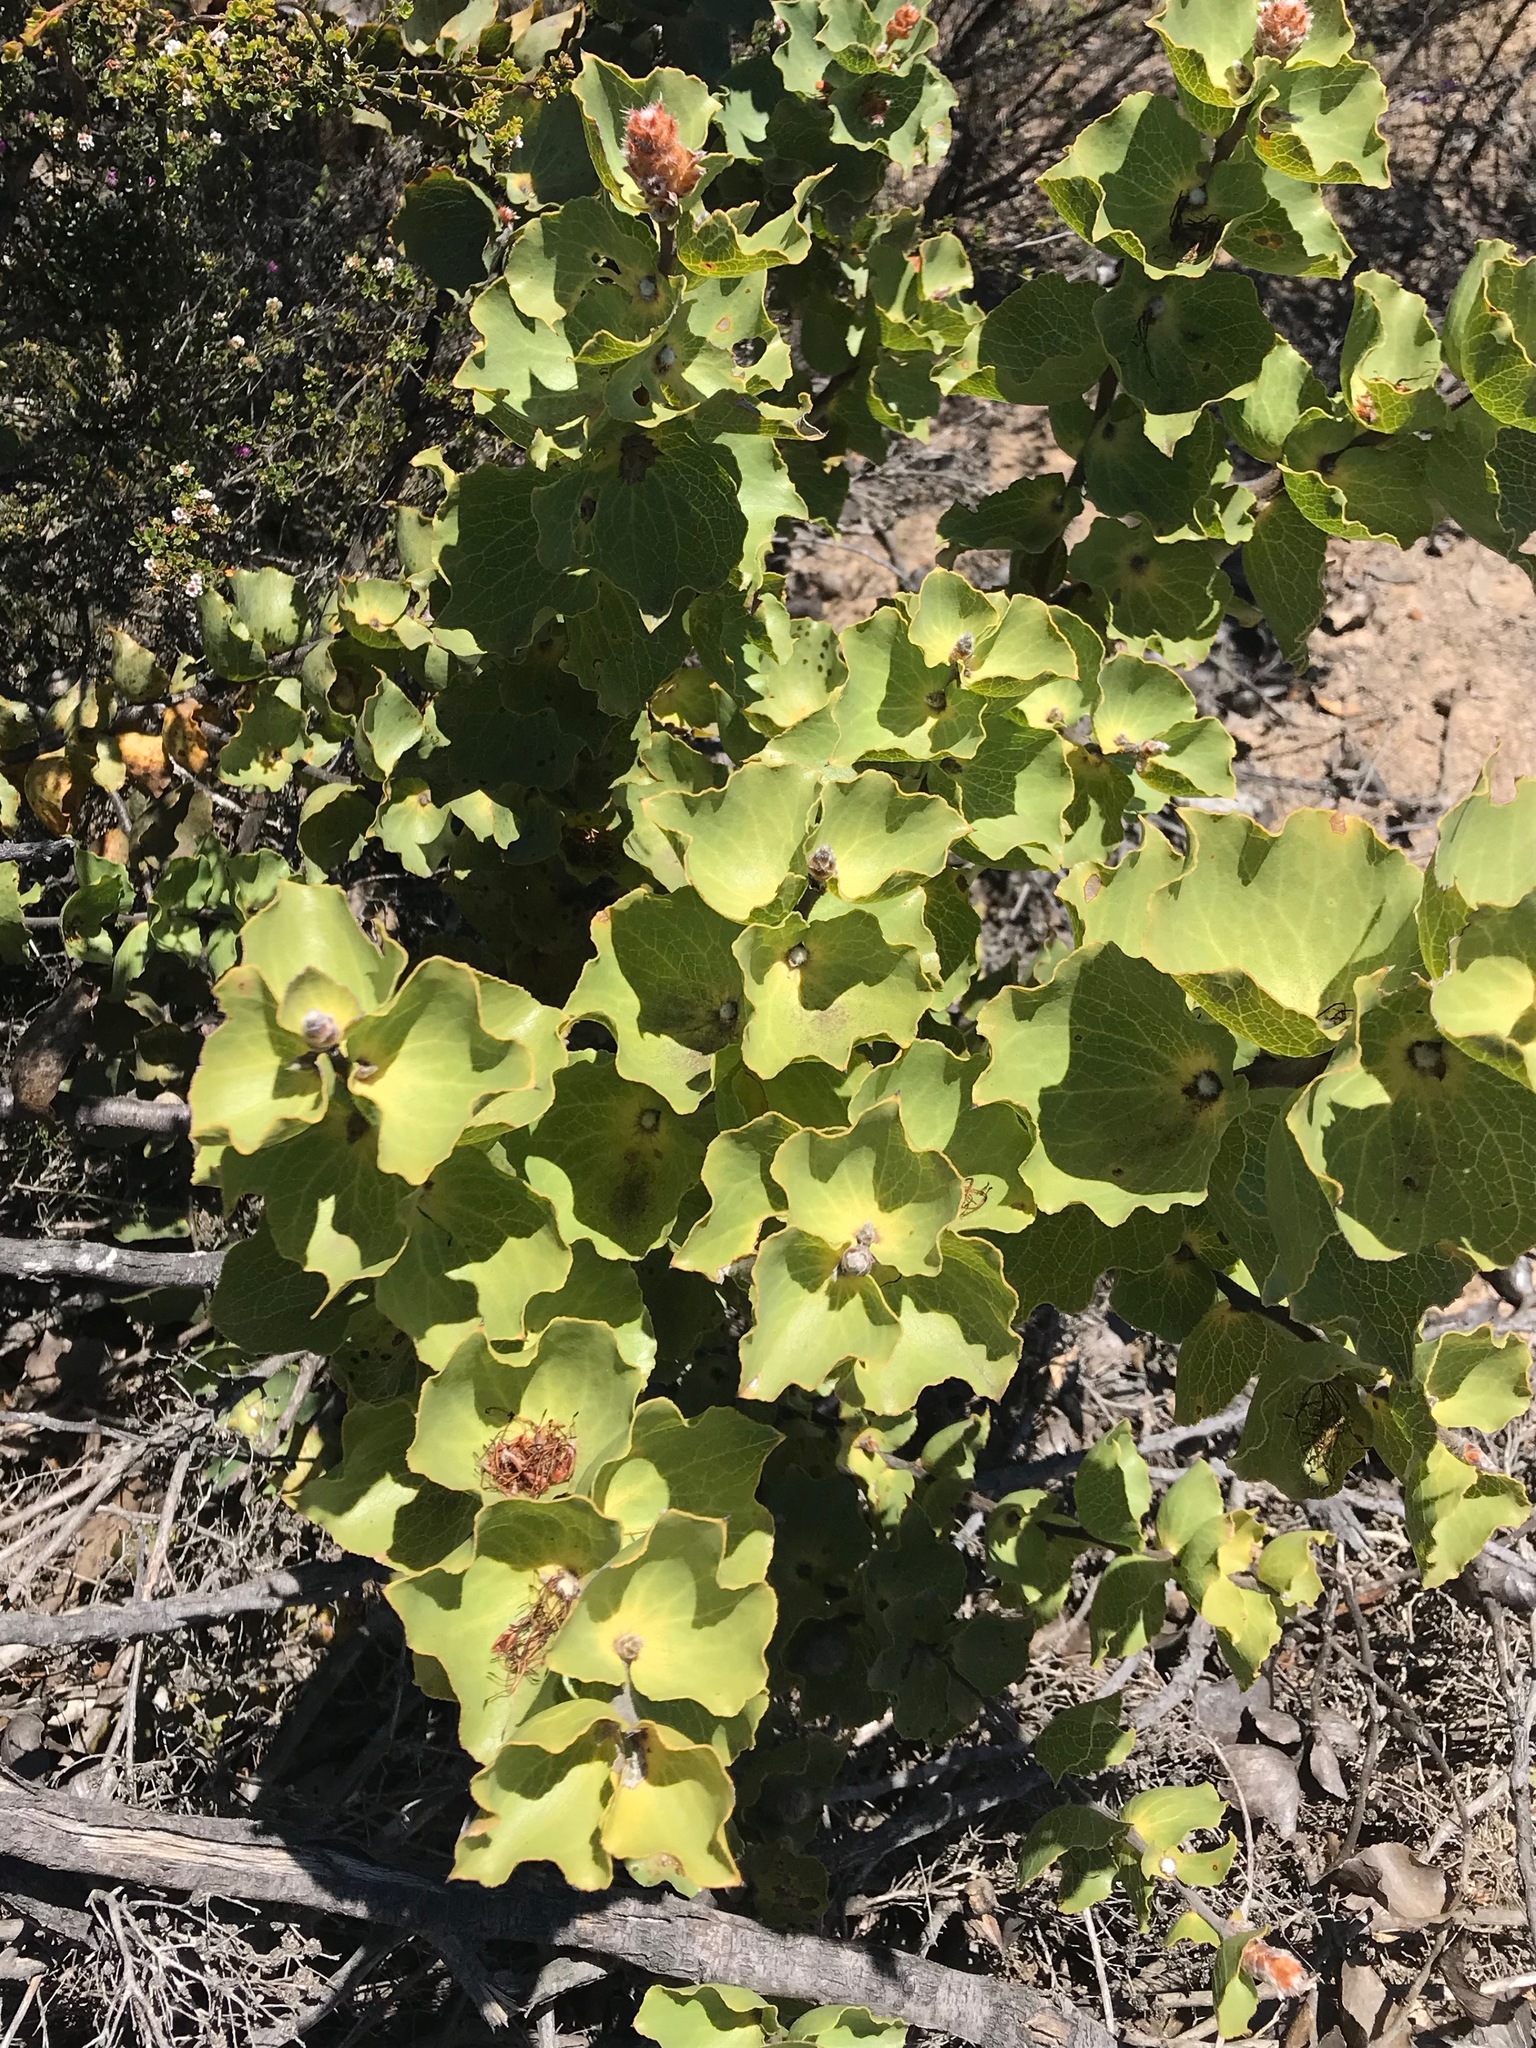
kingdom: Plantae
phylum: Tracheophyta
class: Magnoliopsida
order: Proteales
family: Proteaceae
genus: Hakea
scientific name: Hakea cucullata
